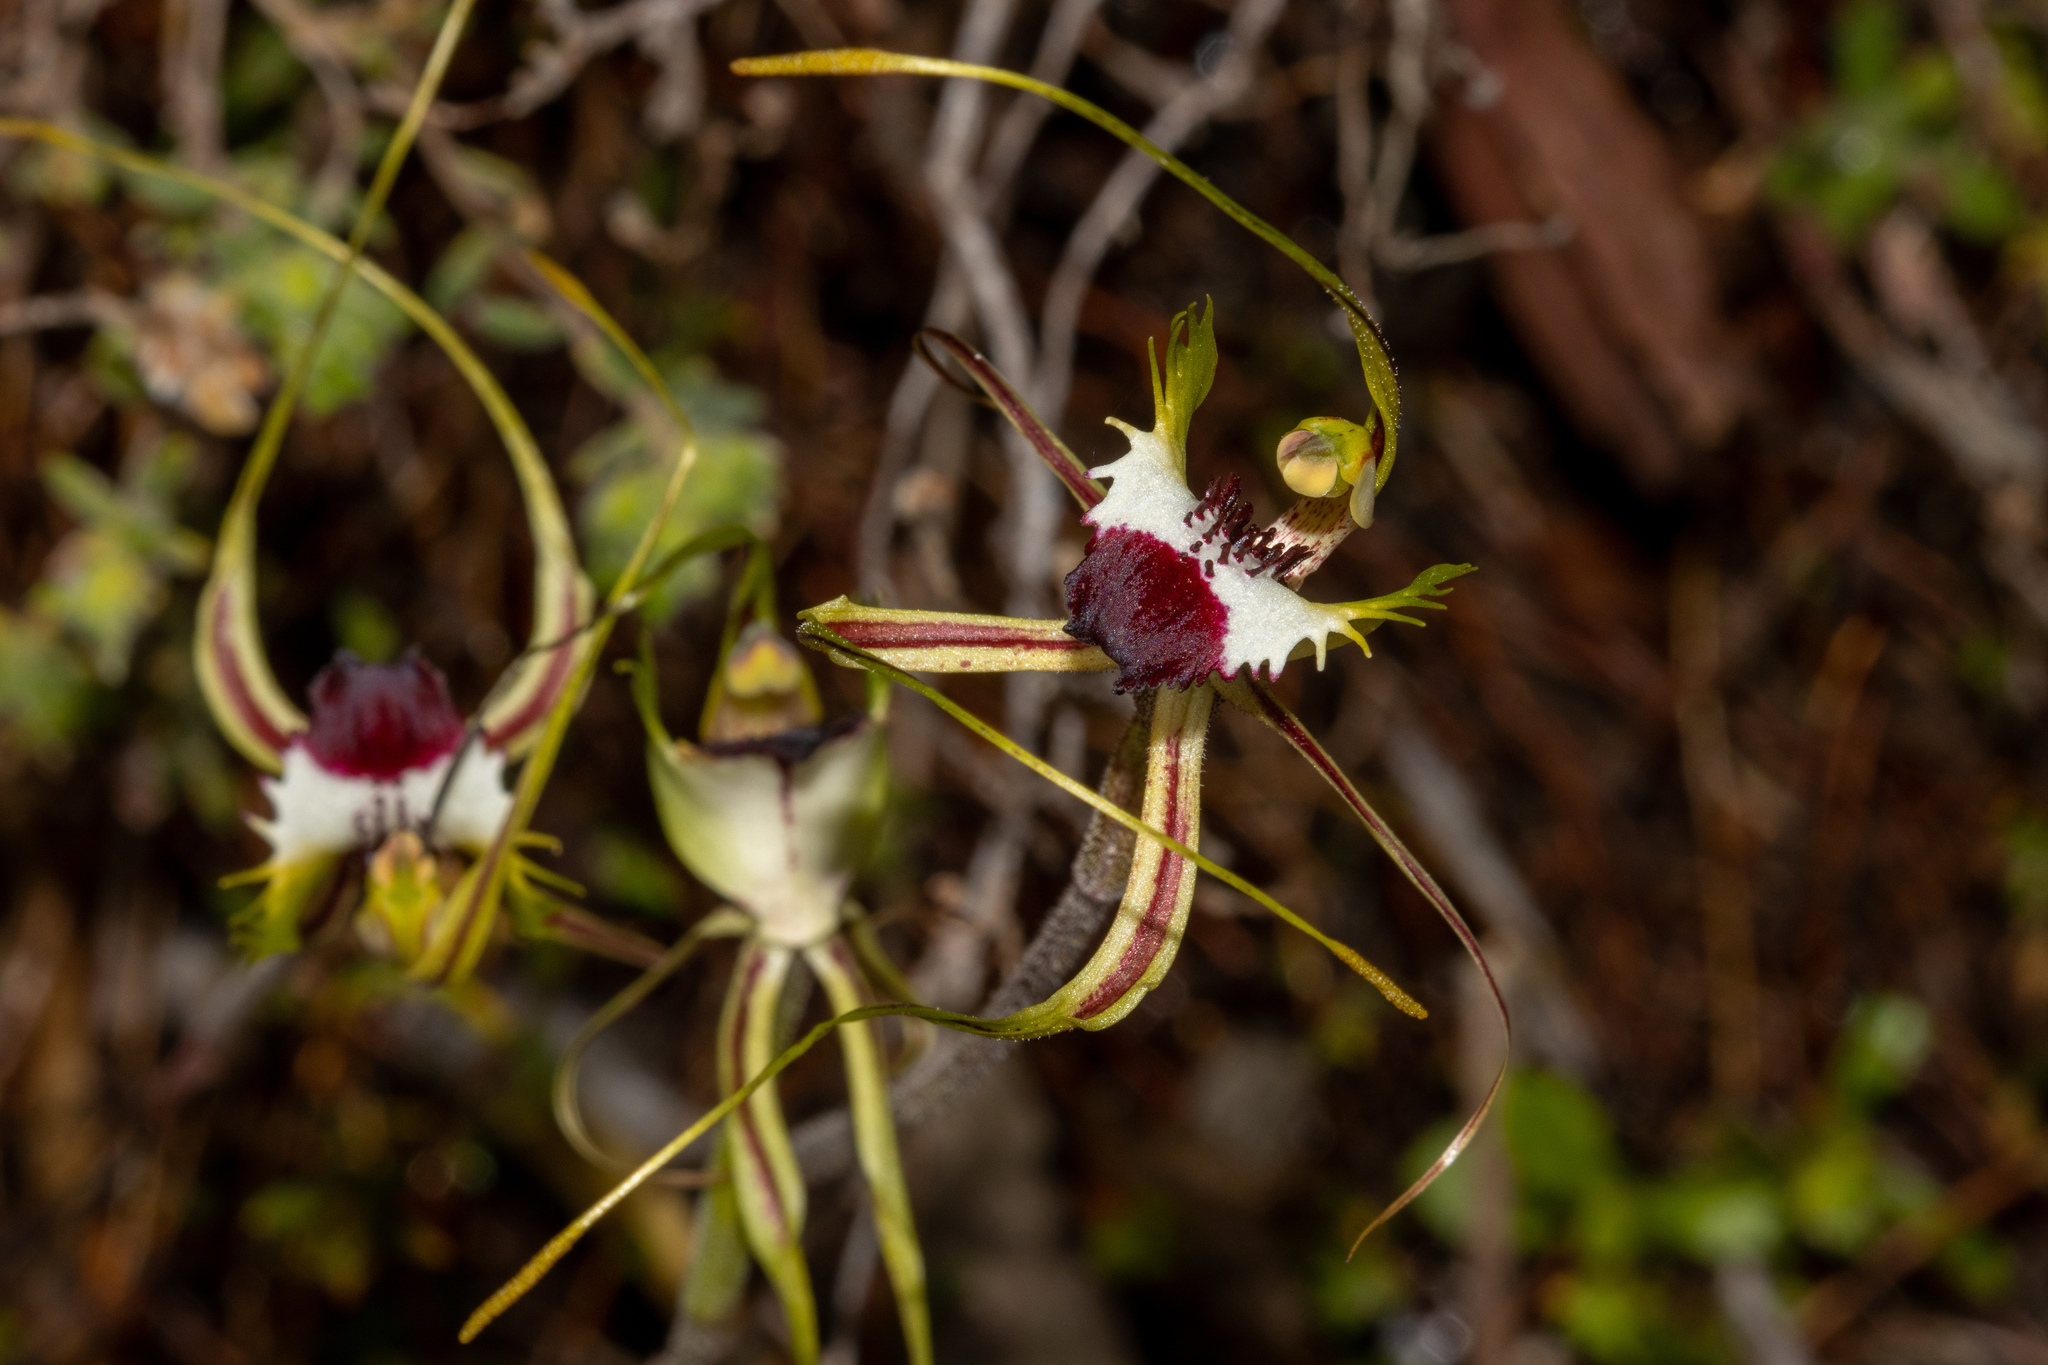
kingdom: Plantae
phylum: Tracheophyta
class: Liliopsida
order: Asparagales
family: Orchidaceae
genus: Caladenia
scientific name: Caladenia tentaculata
